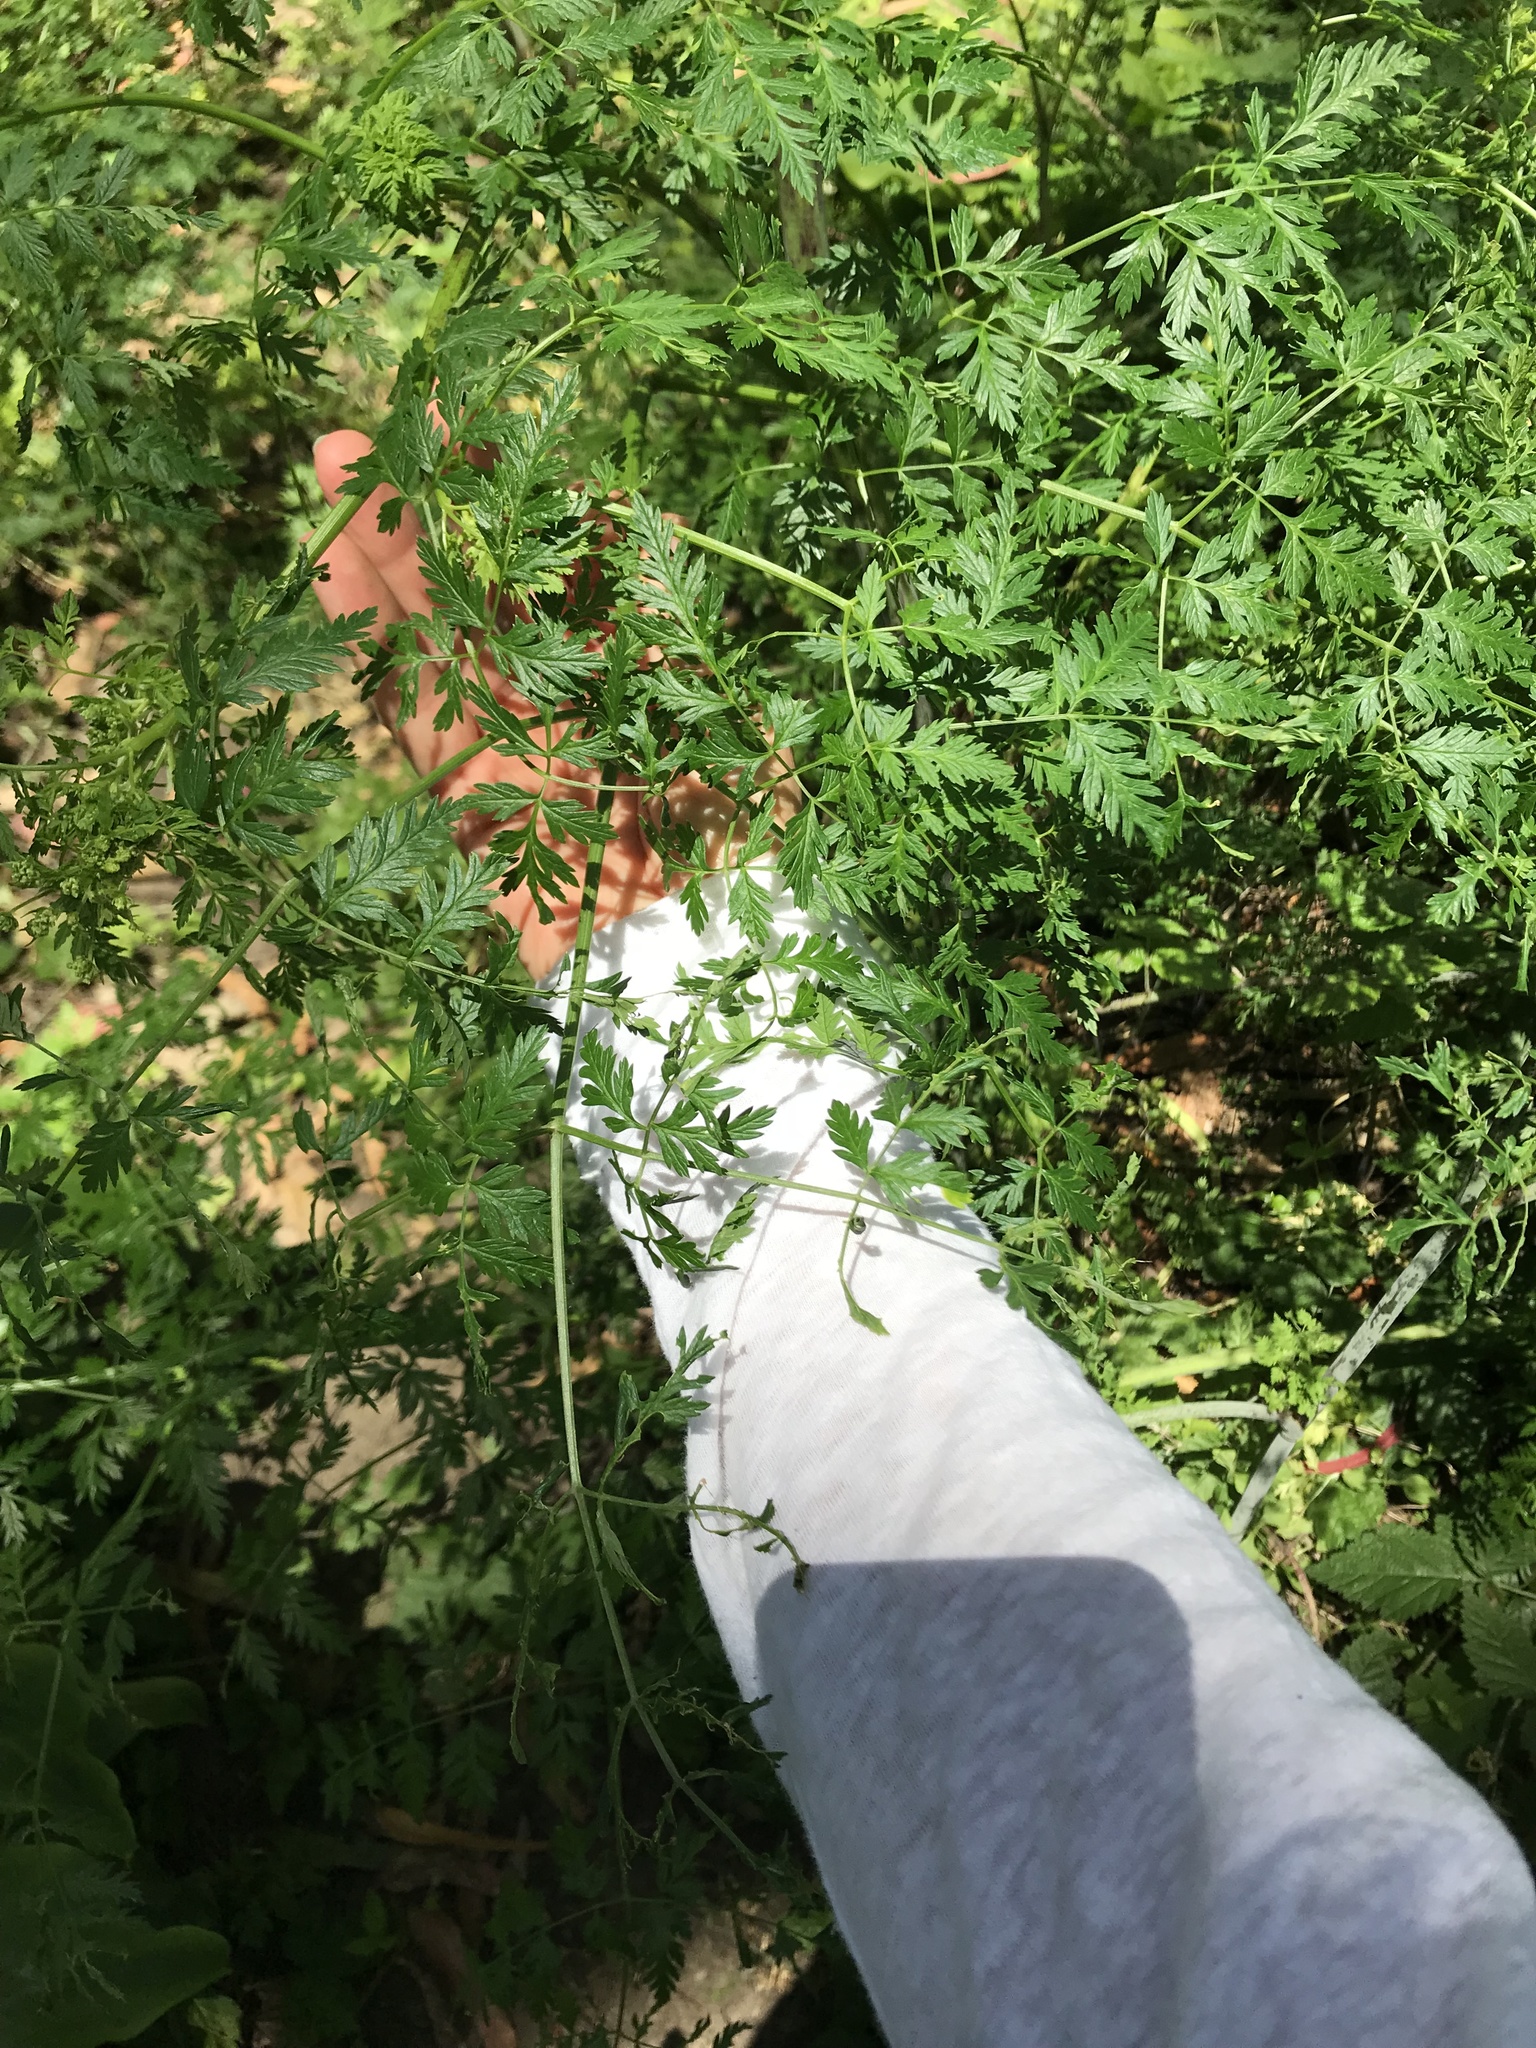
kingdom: Plantae
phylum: Tracheophyta
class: Magnoliopsida
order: Apiales
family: Apiaceae
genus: Conium
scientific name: Conium maculatum
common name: Hemlock
